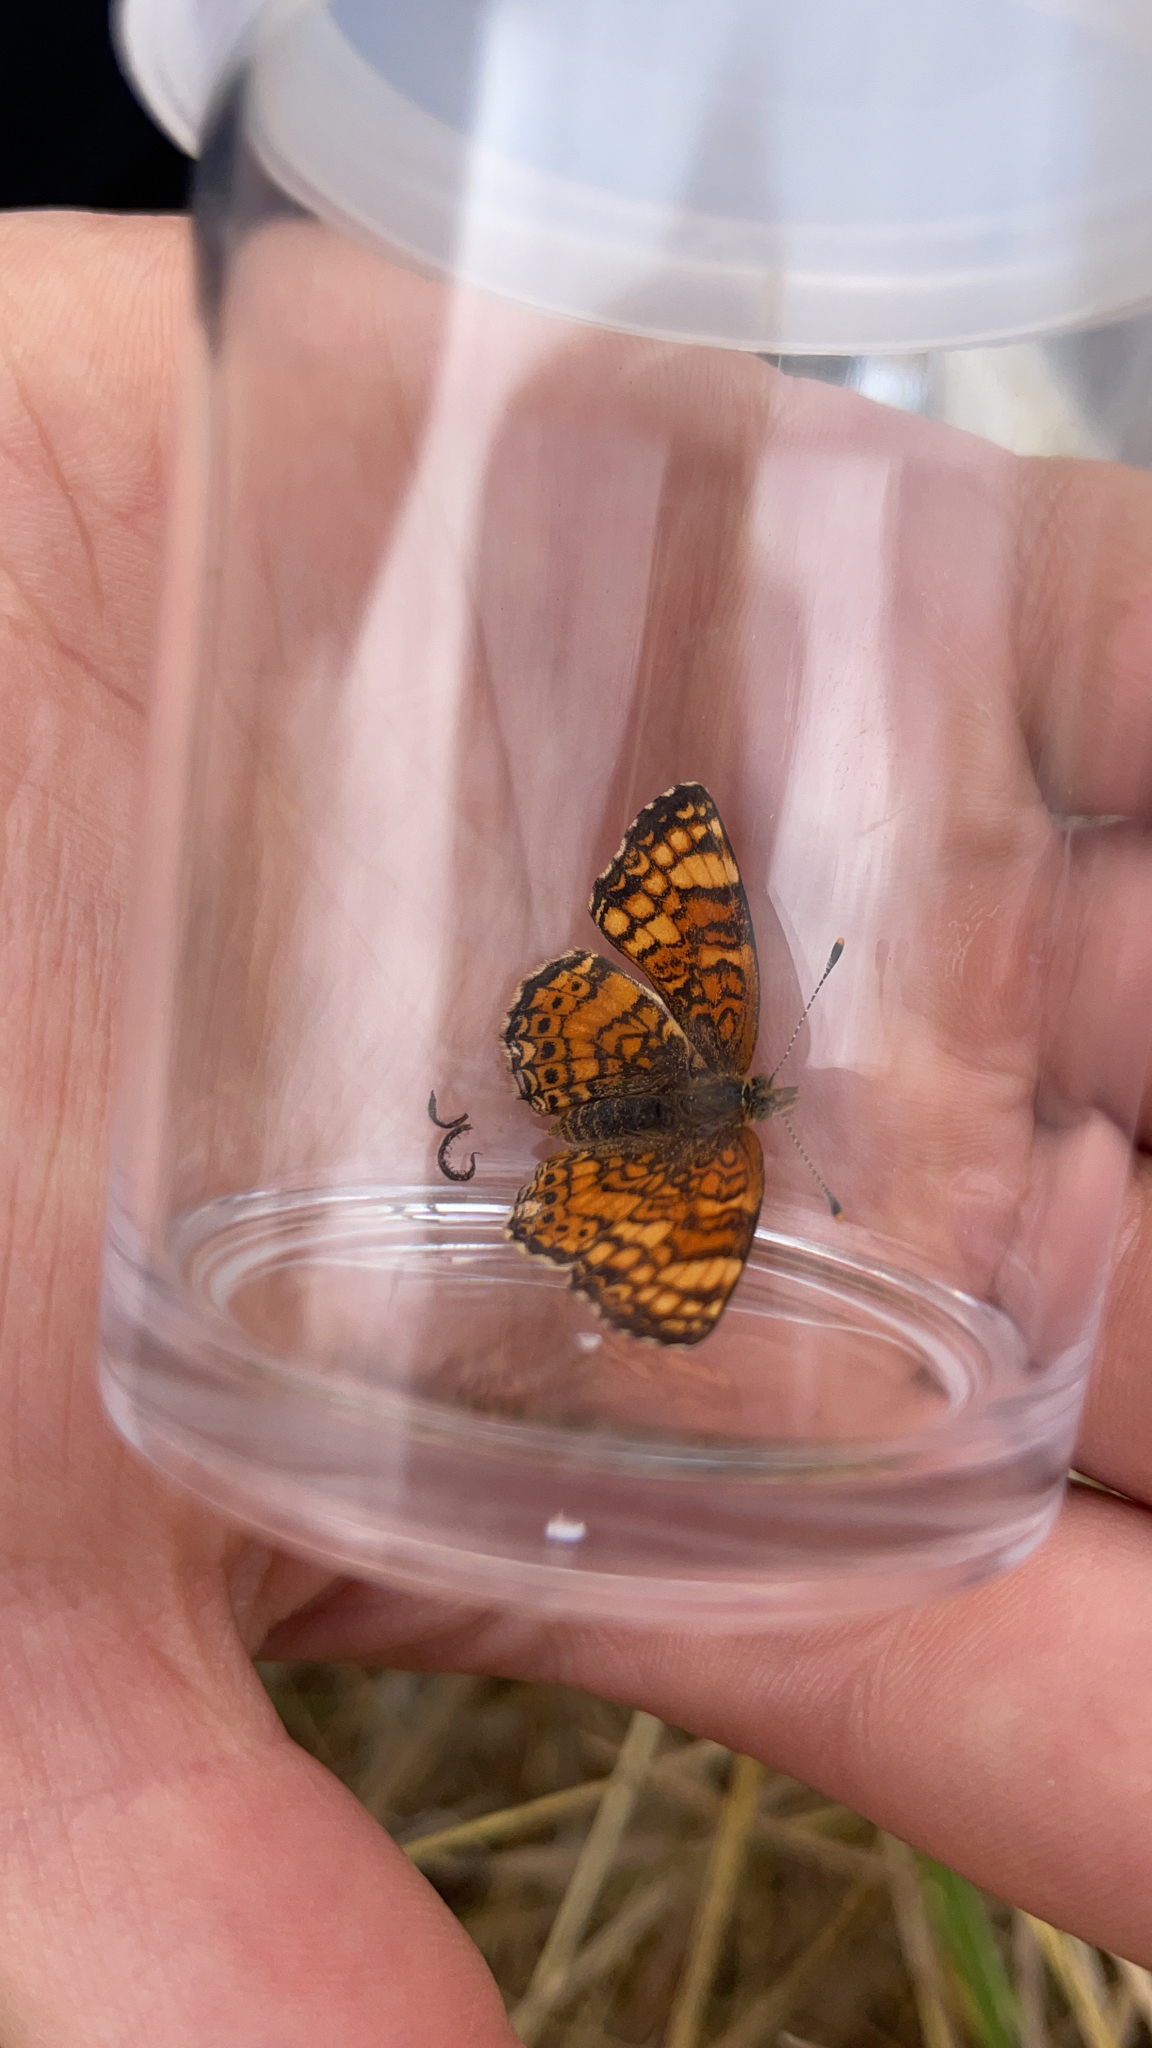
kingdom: Animalia
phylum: Arthropoda
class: Insecta
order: Lepidoptera
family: Nymphalidae
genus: Eresia
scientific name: Eresia aveyrona
